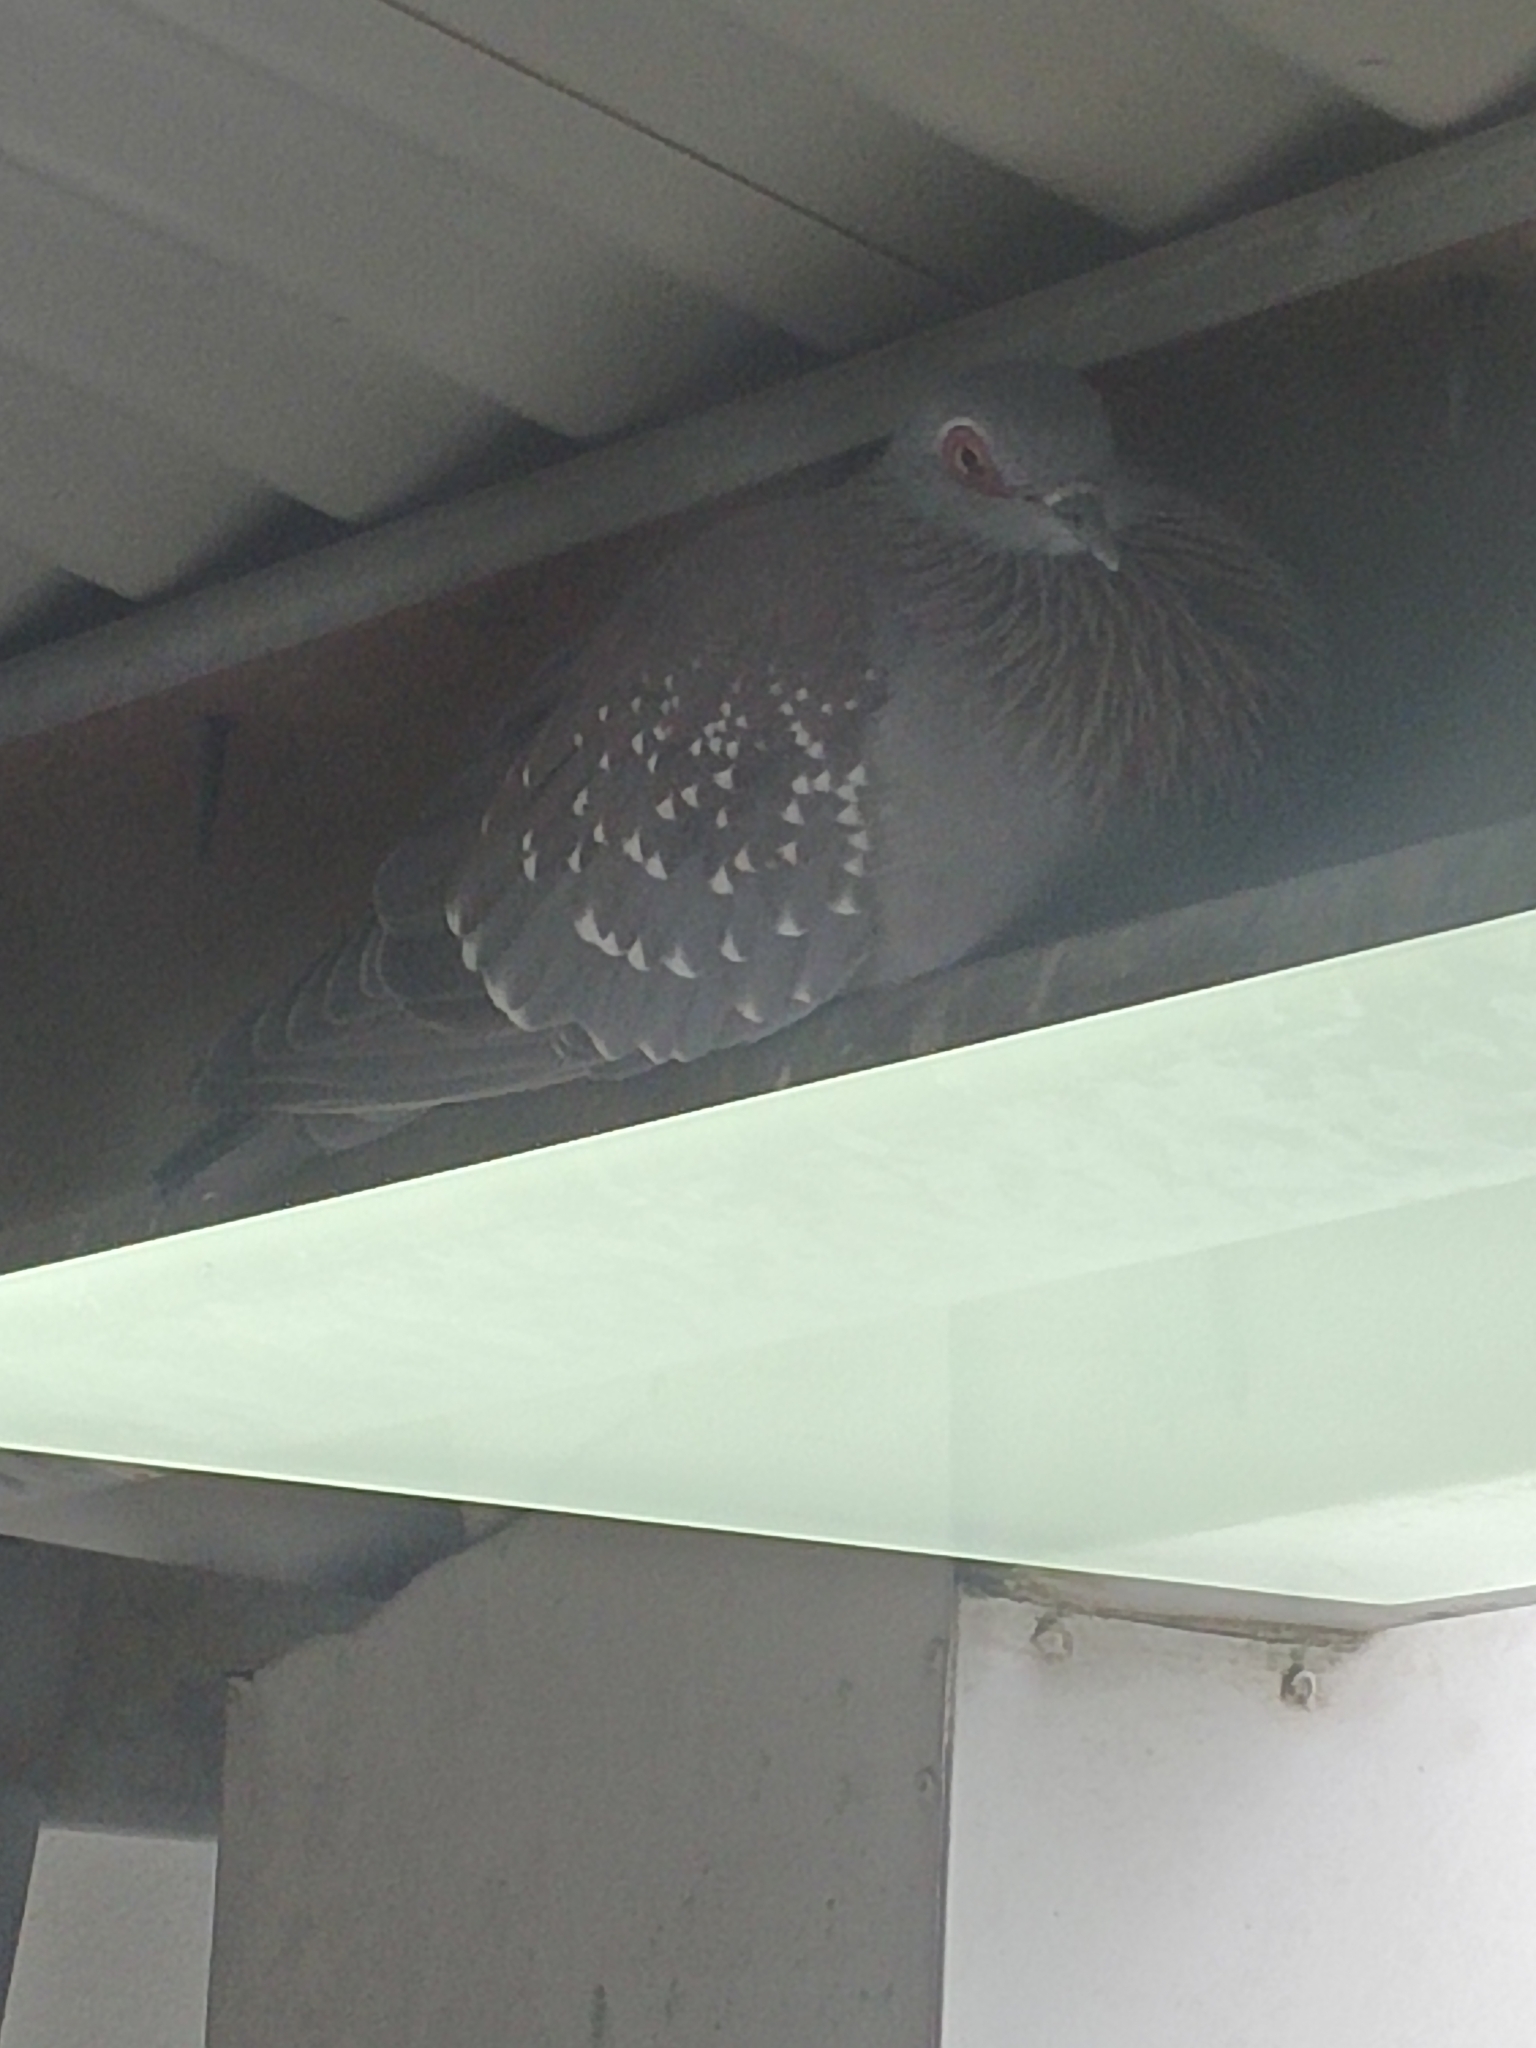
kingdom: Animalia
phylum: Chordata
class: Aves
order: Columbiformes
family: Columbidae
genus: Columba
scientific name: Columba guinea
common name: Speckled pigeon
